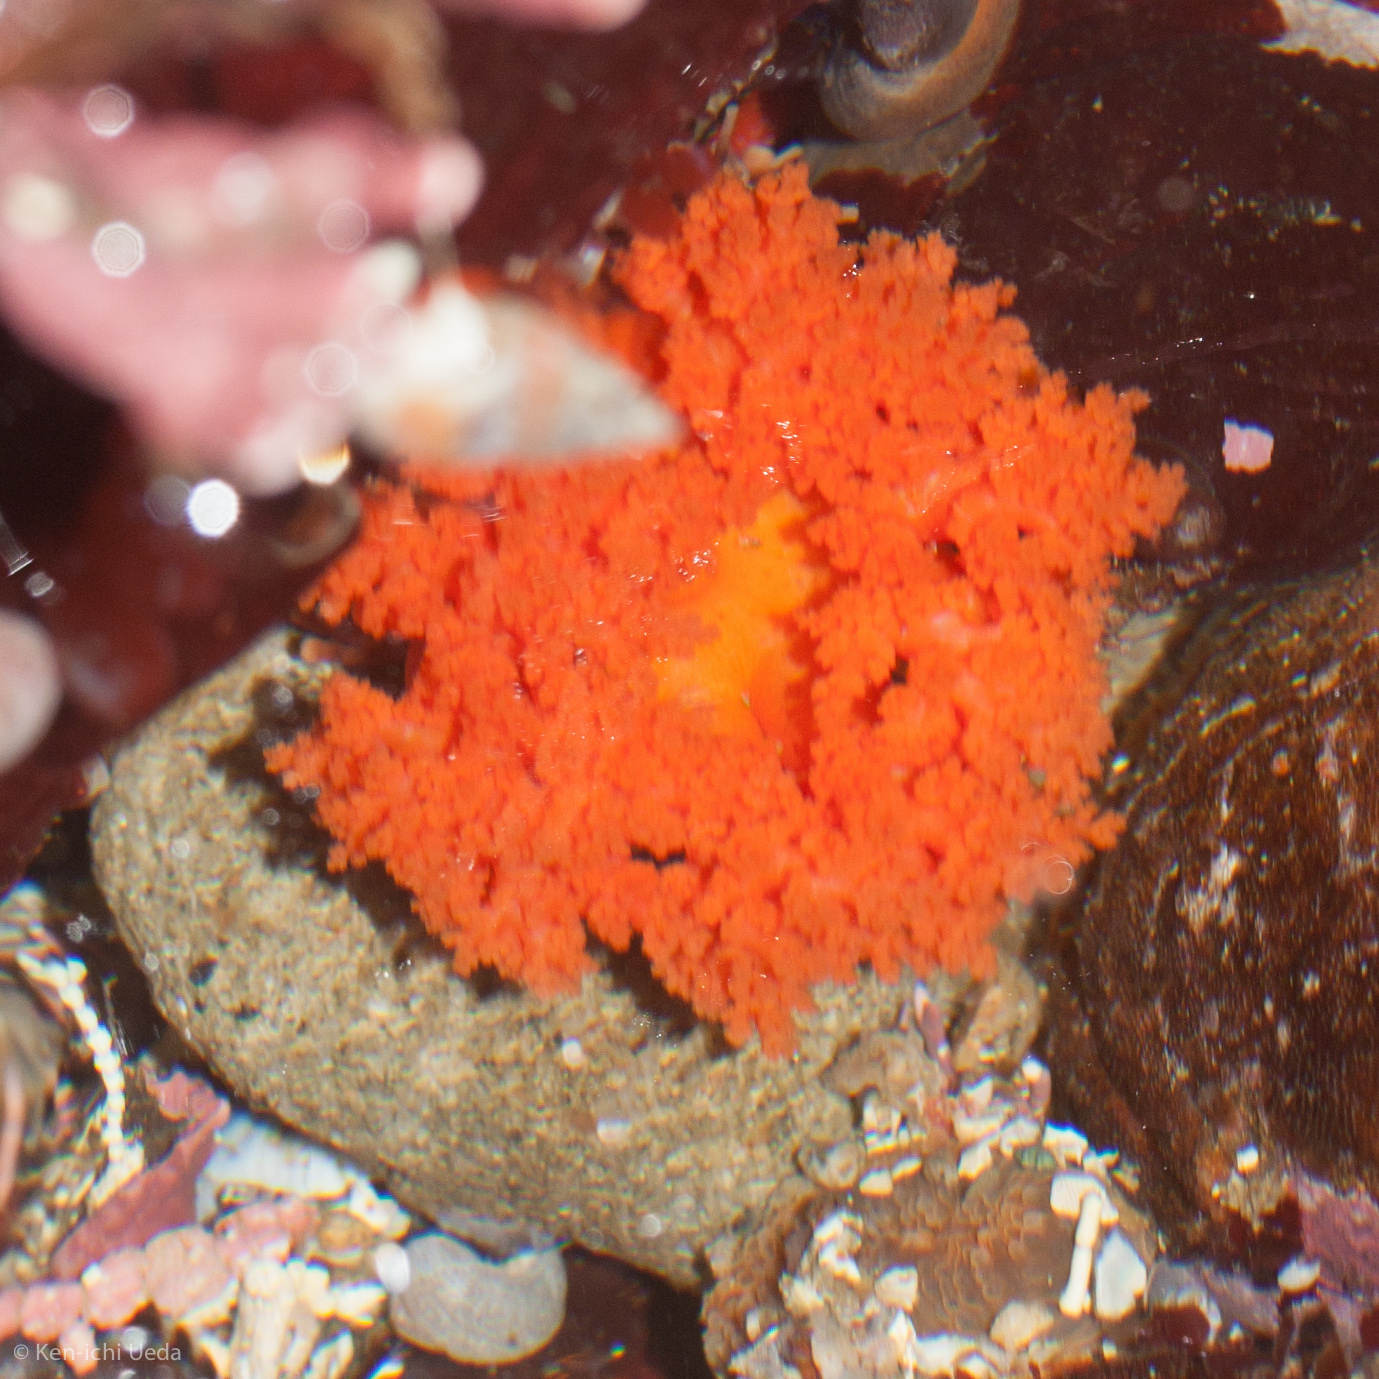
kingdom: Animalia
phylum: Echinodermata
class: Holothuroidea
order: Dendrochirotida
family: Cucumariidae
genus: Cucumaria
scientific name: Cucumaria miniata
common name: Orange sea cucumber
